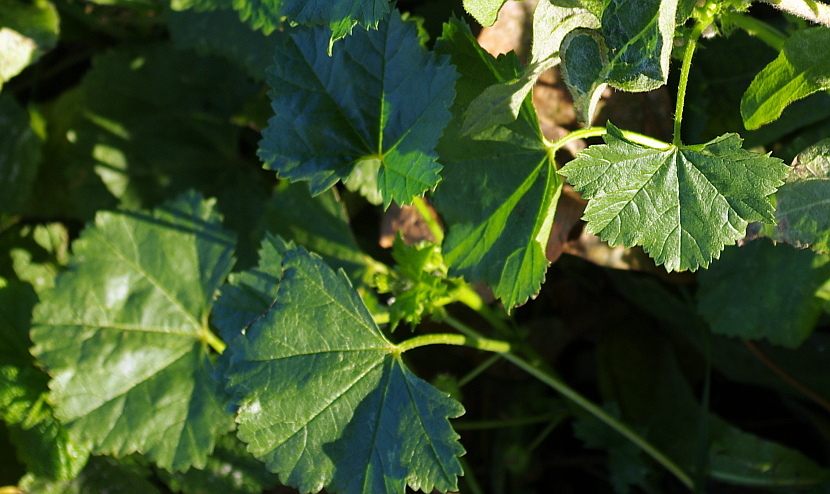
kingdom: Plantae
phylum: Tracheophyta
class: Magnoliopsida
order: Malvales
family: Malvaceae
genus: Malva
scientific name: Malva pusilla
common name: Small mallow
